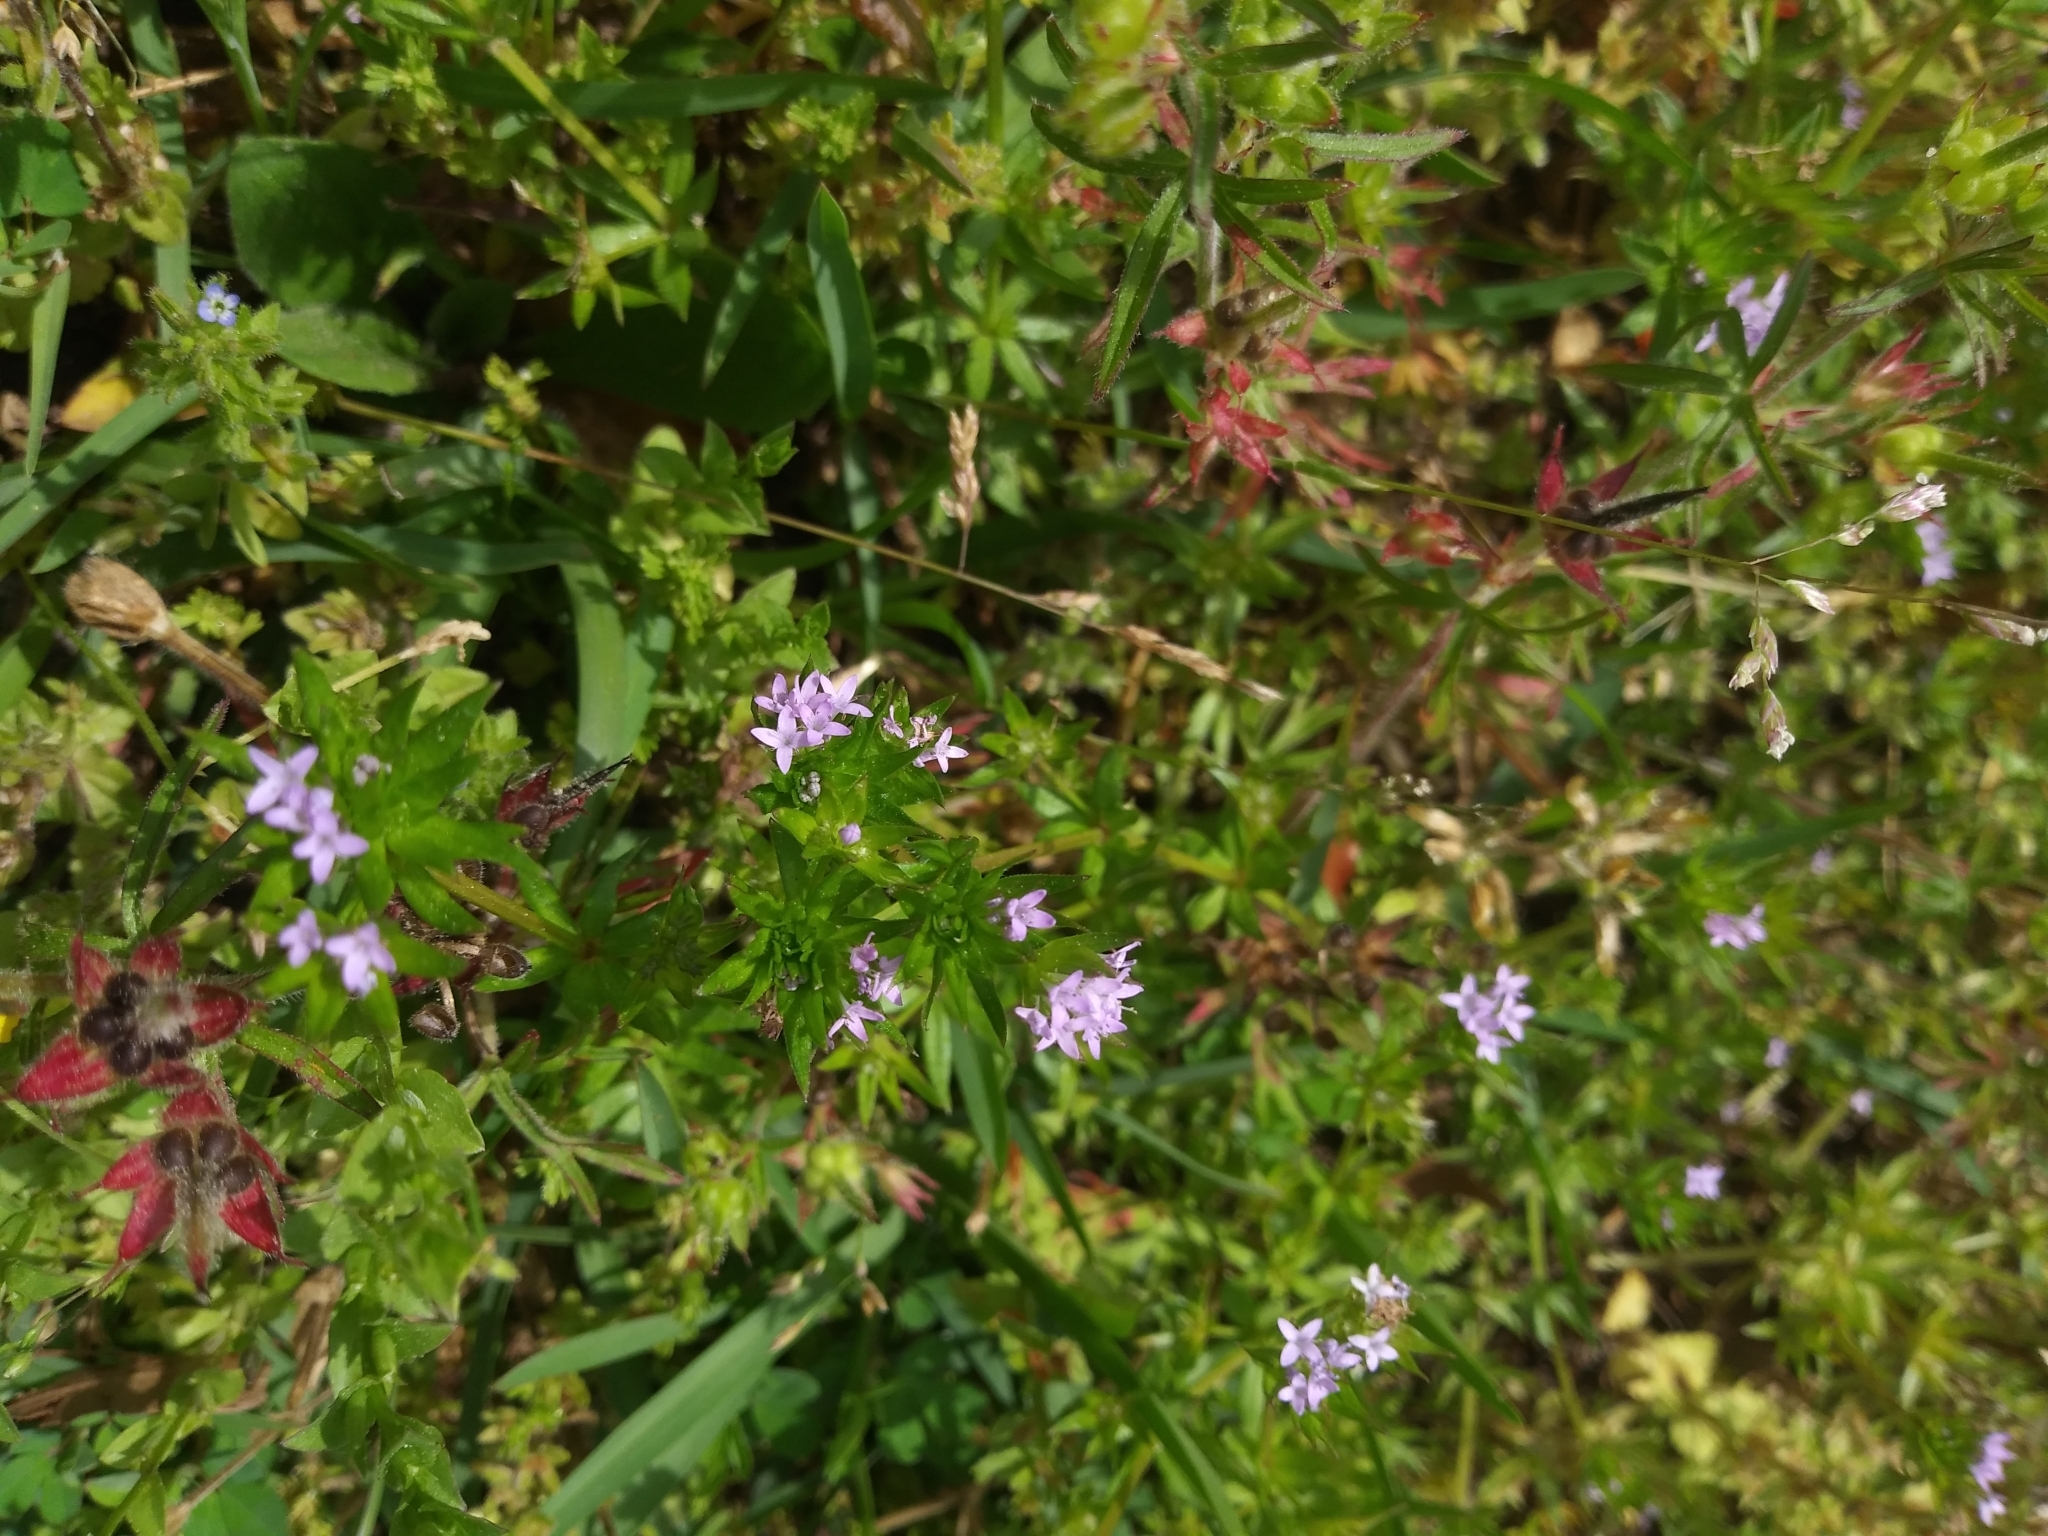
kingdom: Plantae
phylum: Tracheophyta
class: Magnoliopsida
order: Gentianales
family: Rubiaceae
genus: Sherardia
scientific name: Sherardia arvensis
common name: Field madder
